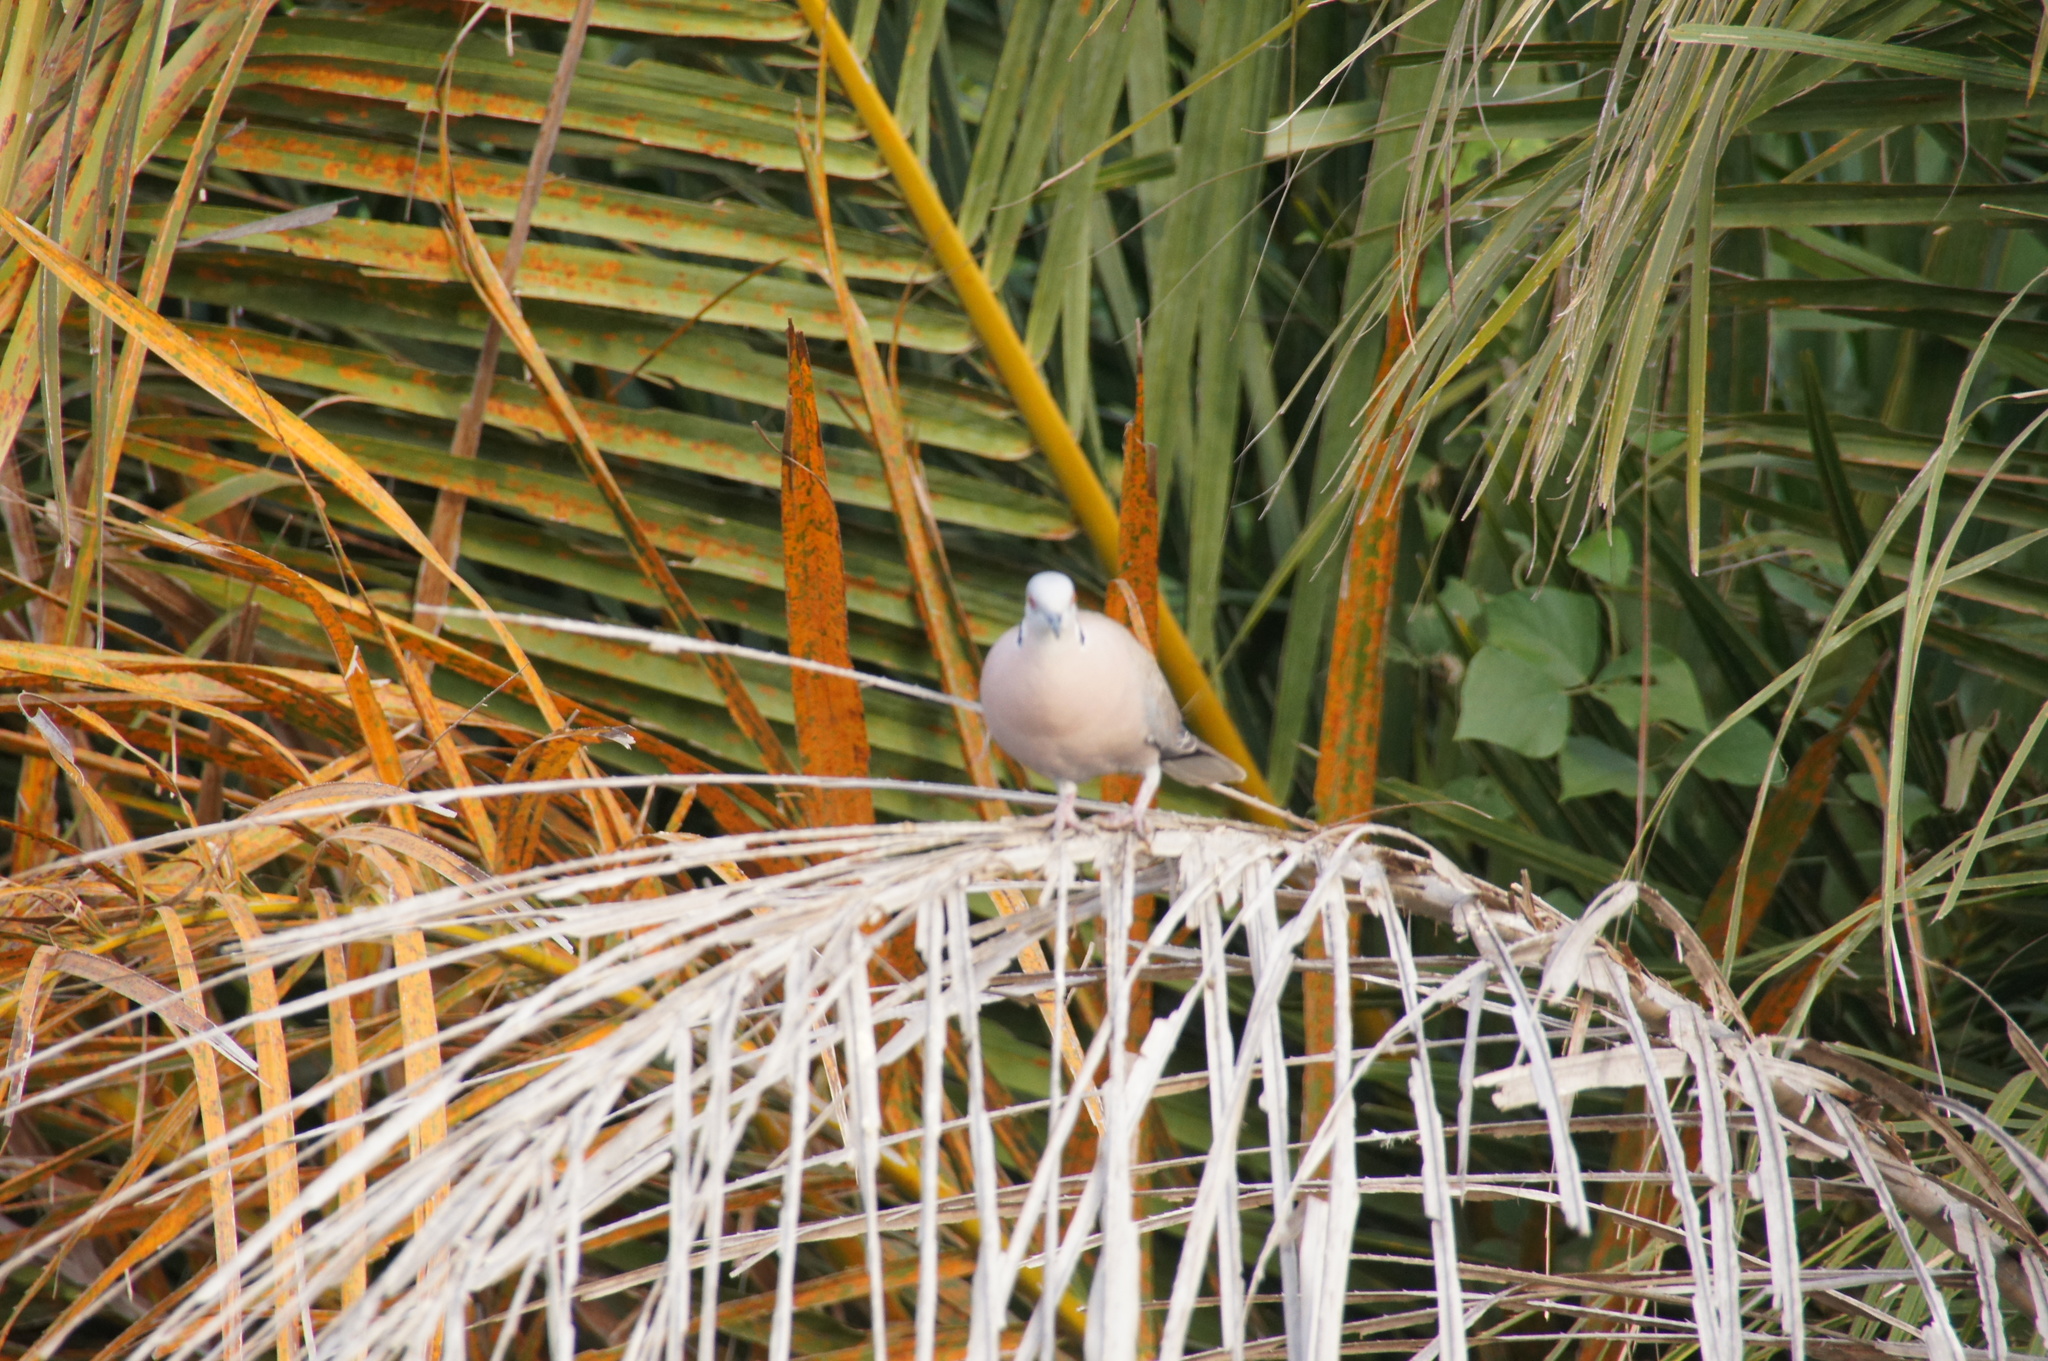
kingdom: Animalia
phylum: Chordata
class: Aves
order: Columbiformes
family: Columbidae
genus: Streptopelia
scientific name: Streptopelia decipiens
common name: Mourning collared dove
